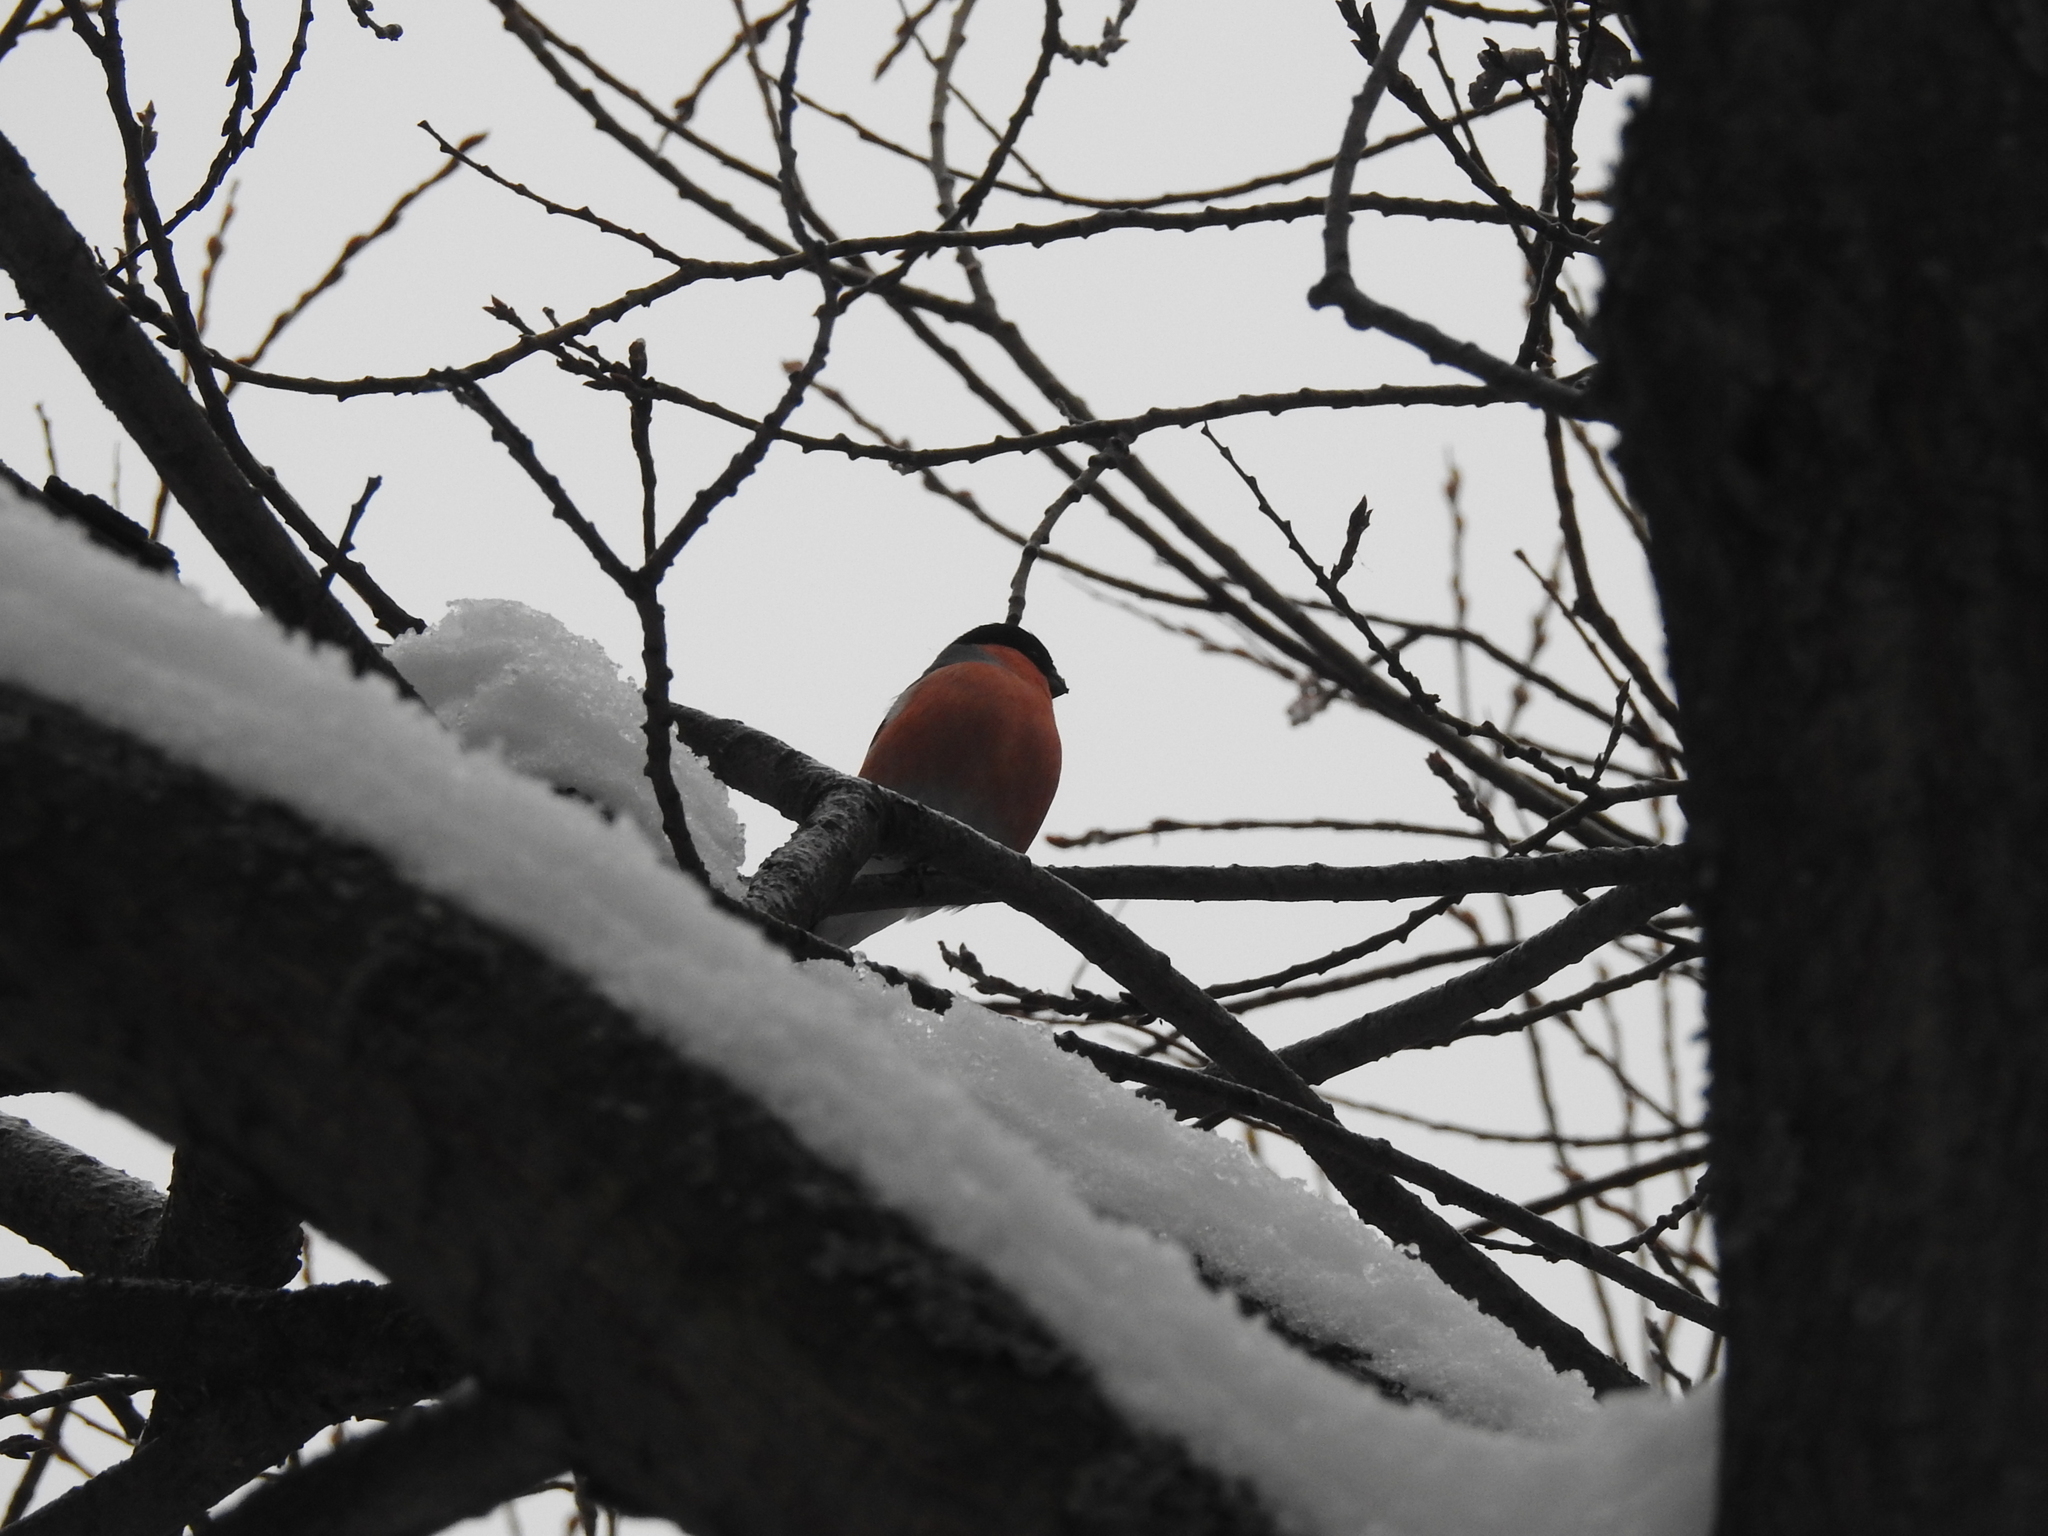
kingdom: Animalia
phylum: Chordata
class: Aves
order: Passeriformes
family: Fringillidae
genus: Pyrrhula
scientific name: Pyrrhula pyrrhula
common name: Eurasian bullfinch
